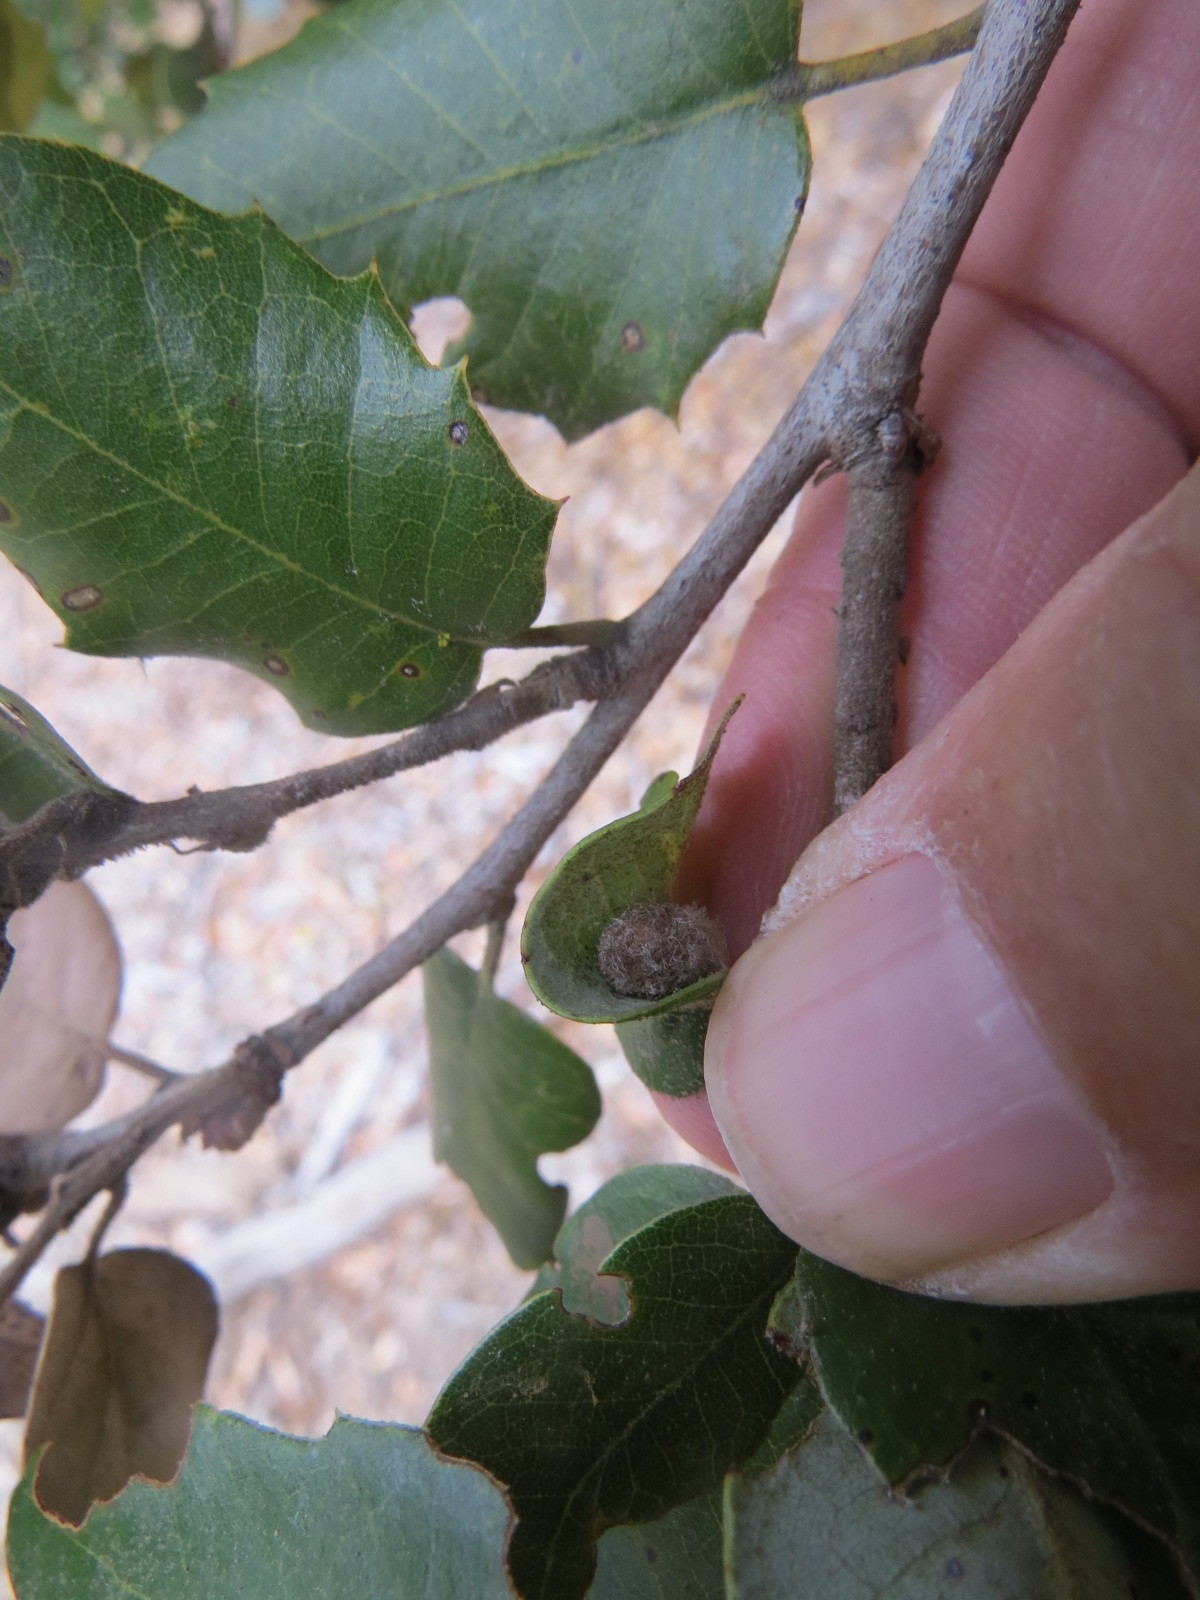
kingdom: Animalia
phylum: Arthropoda
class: Insecta
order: Hymenoptera
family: Cynipidae
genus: Disholandricus
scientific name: Disholandricus
